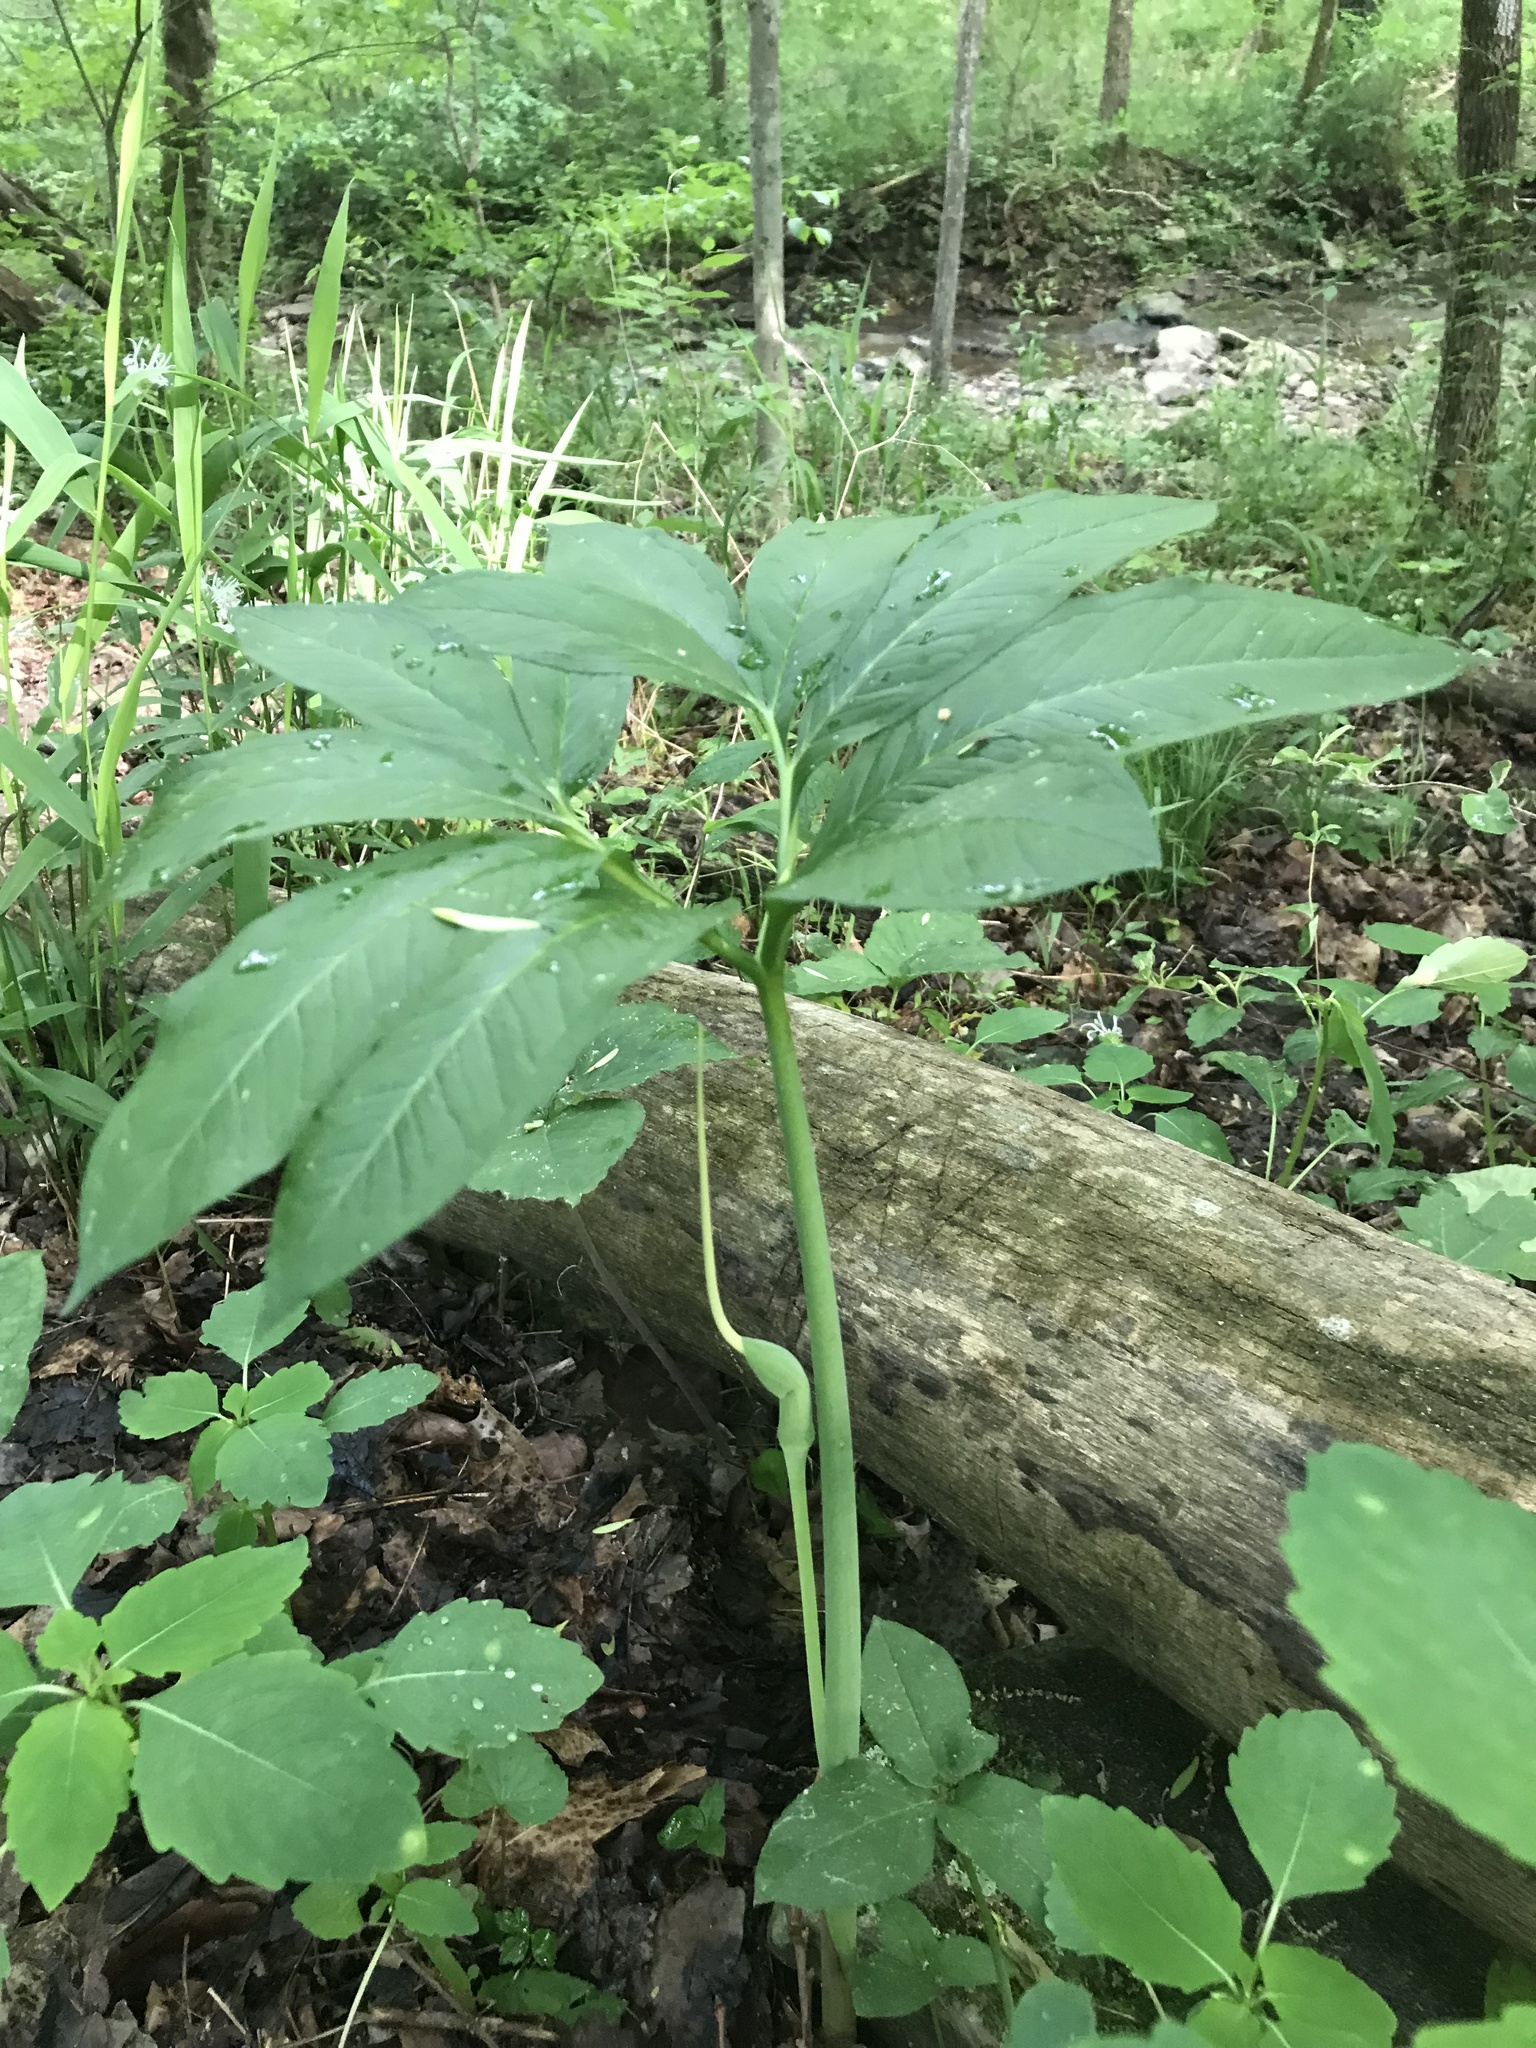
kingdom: Plantae
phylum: Tracheophyta
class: Liliopsida
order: Alismatales
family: Araceae
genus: Arisaema
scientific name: Arisaema dracontium
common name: Dragon-arum
